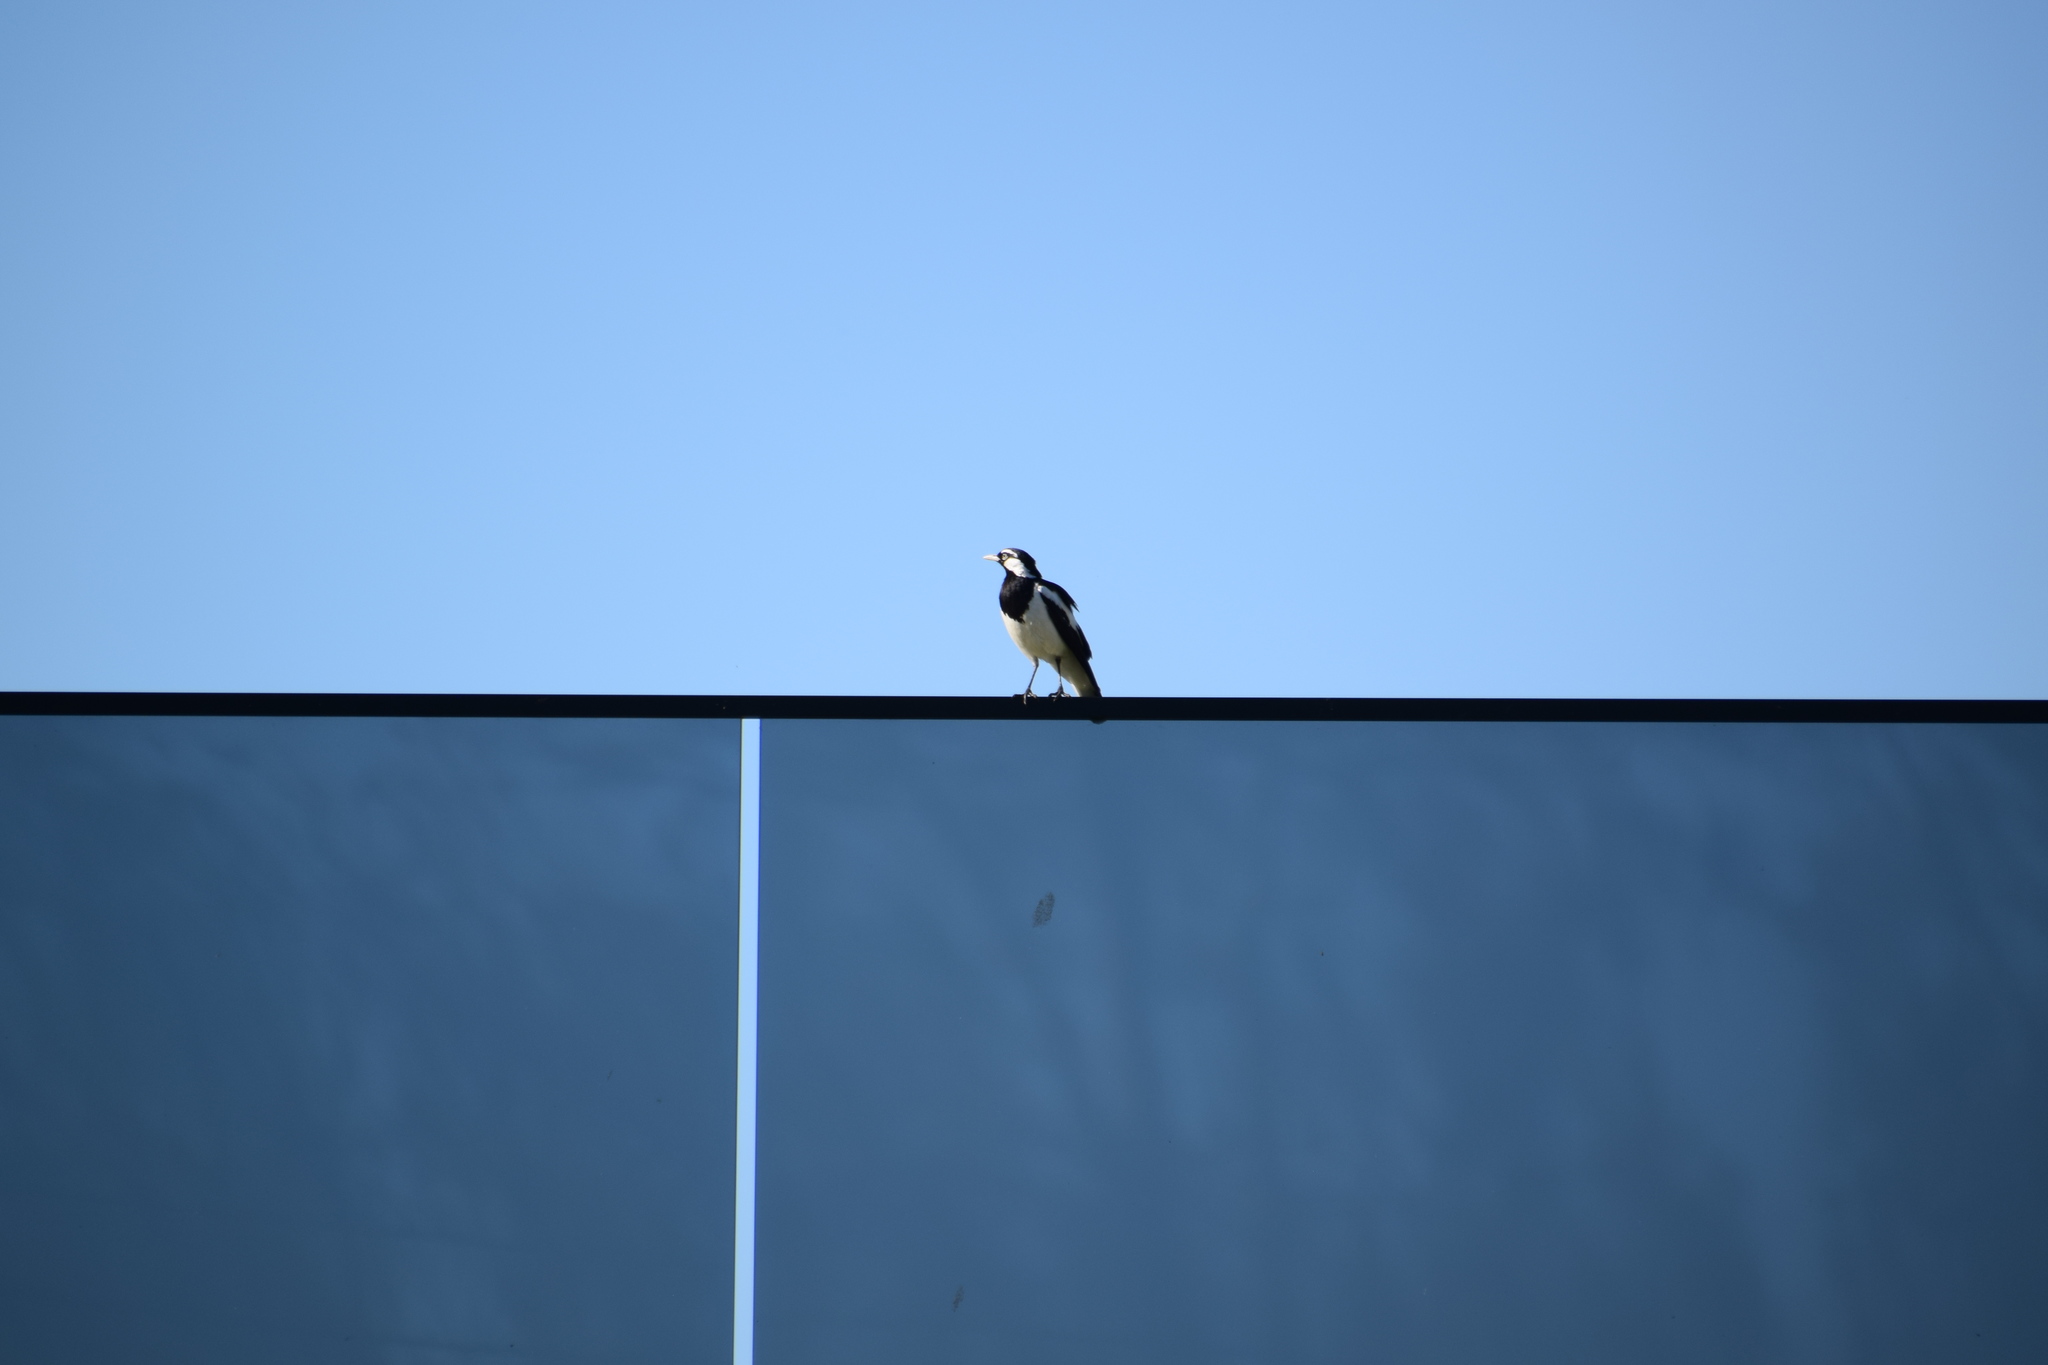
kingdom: Animalia
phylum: Chordata
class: Aves
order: Passeriformes
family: Monarchidae
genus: Grallina
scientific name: Grallina cyanoleuca
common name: Magpie-lark
